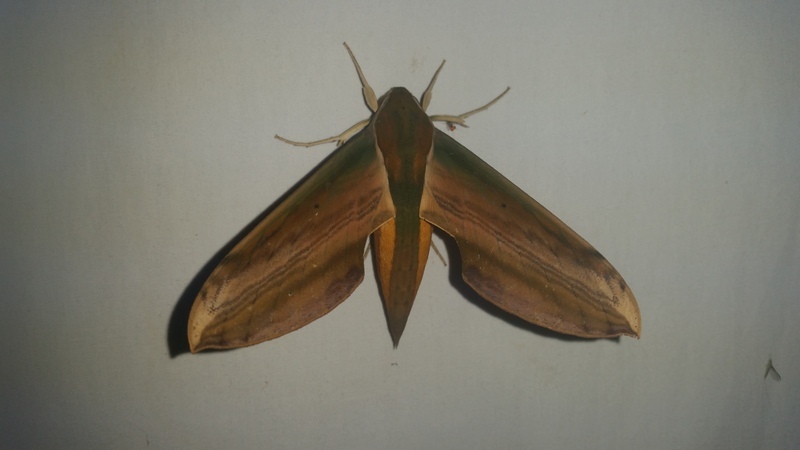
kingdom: Animalia
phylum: Arthropoda
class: Insecta
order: Lepidoptera
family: Sphingidae
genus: Theretra
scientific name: Theretra nessus
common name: Yam hawk moth
